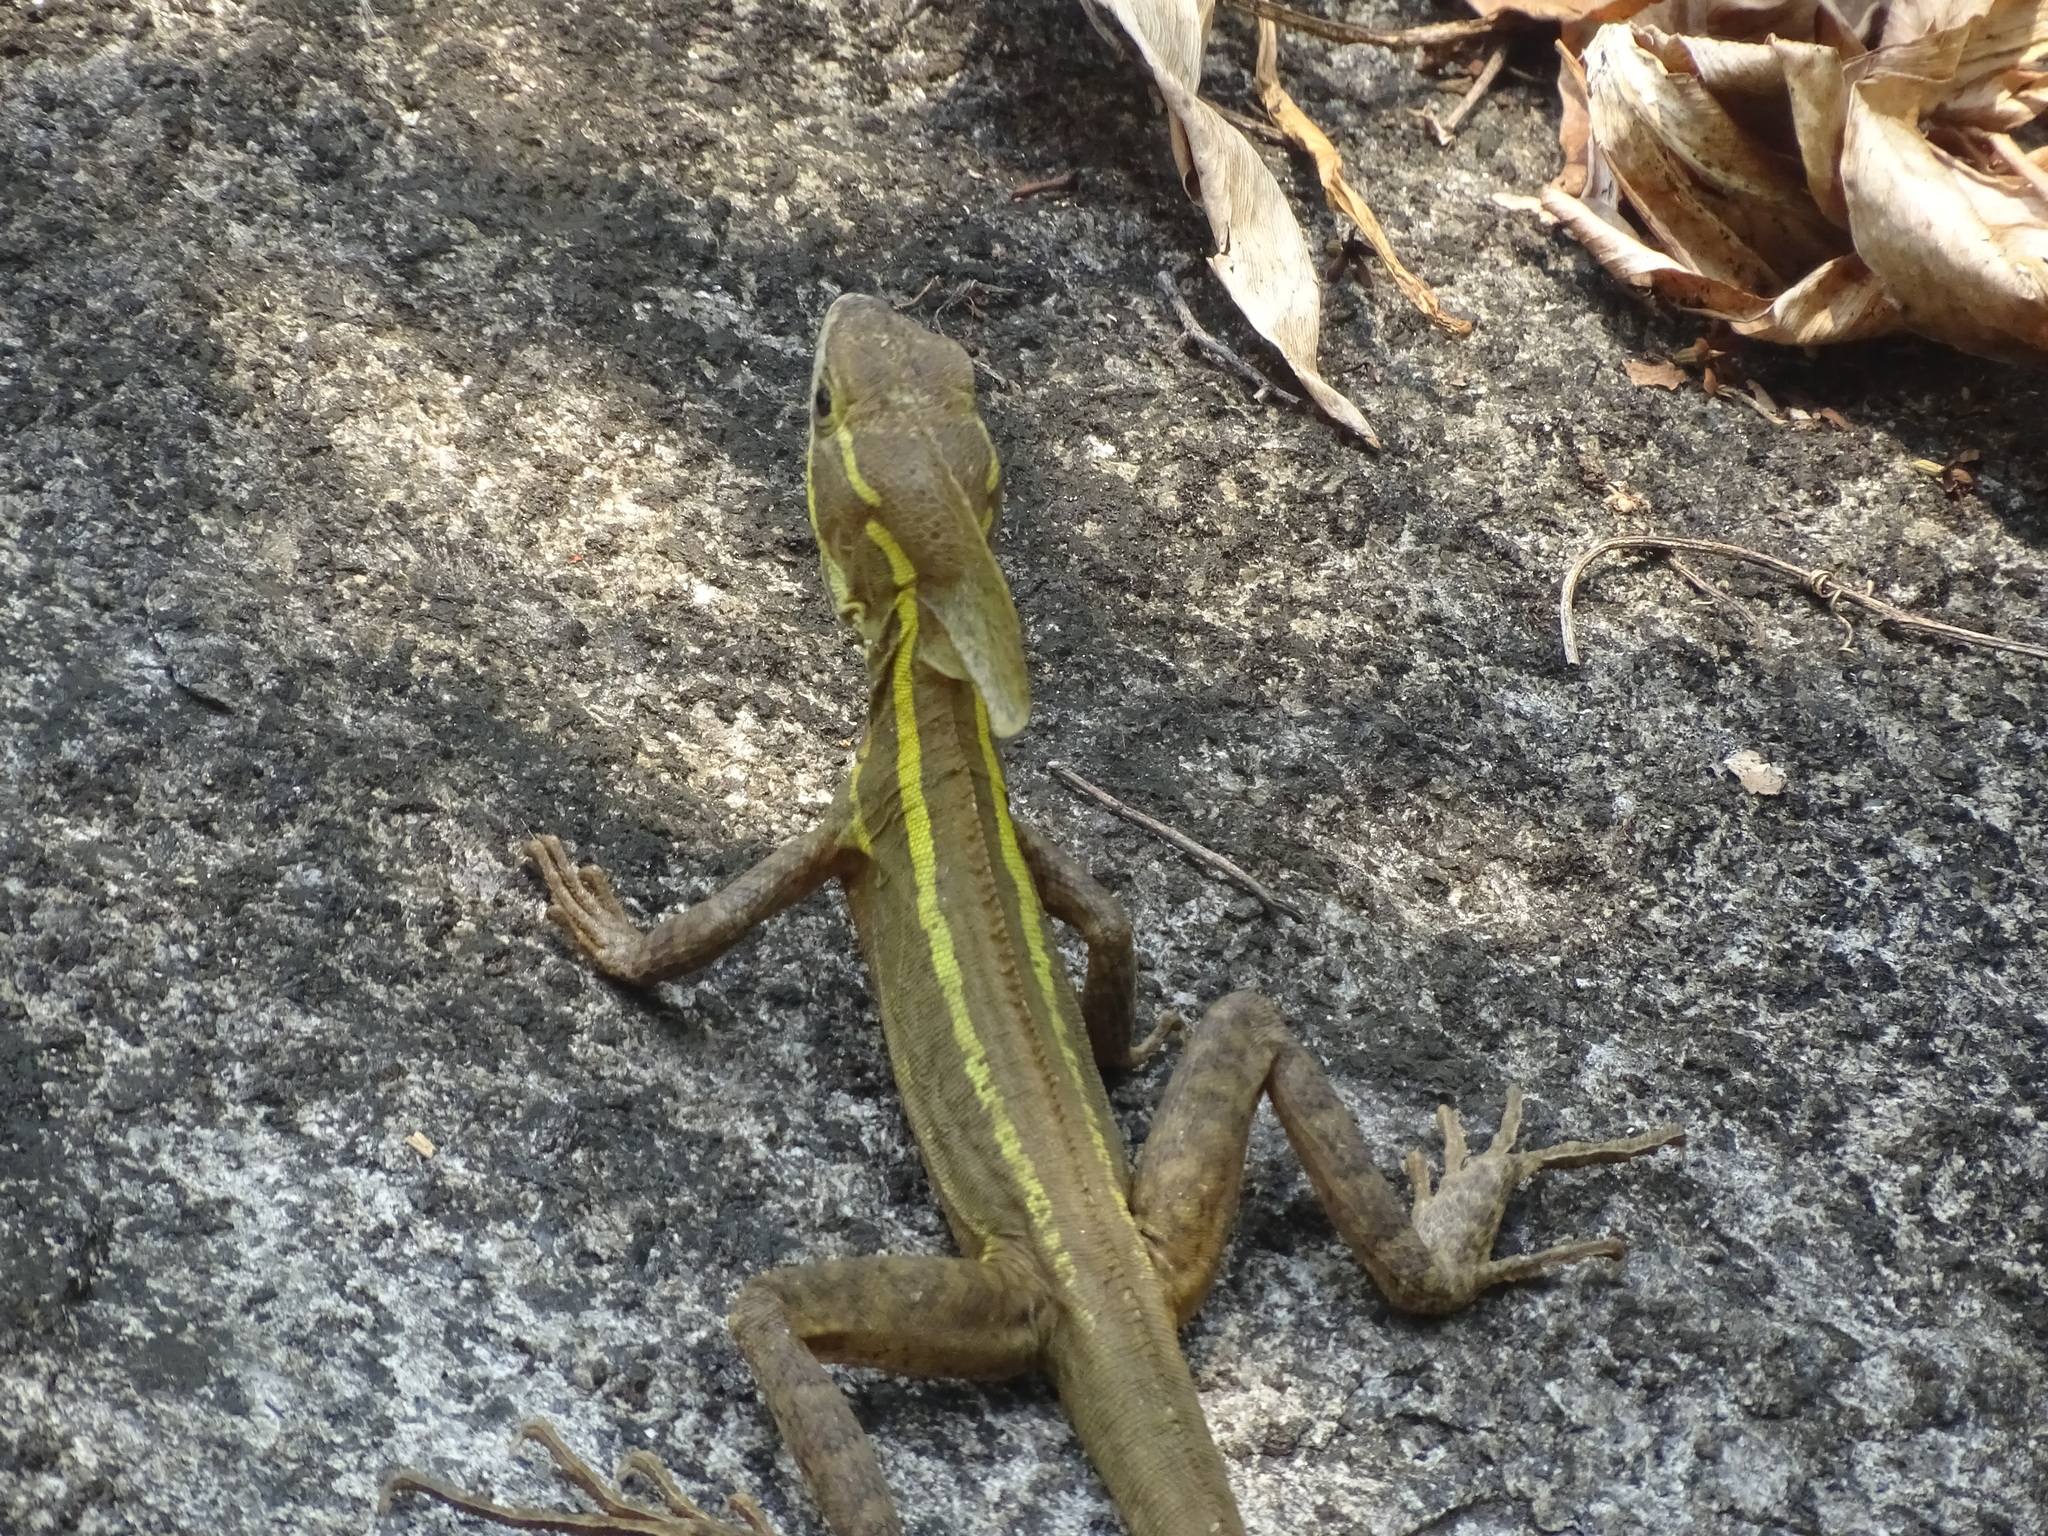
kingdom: Animalia
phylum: Chordata
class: Squamata
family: Corytophanidae
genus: Basiliscus
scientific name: Basiliscus vittatus
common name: Brown basilisk
